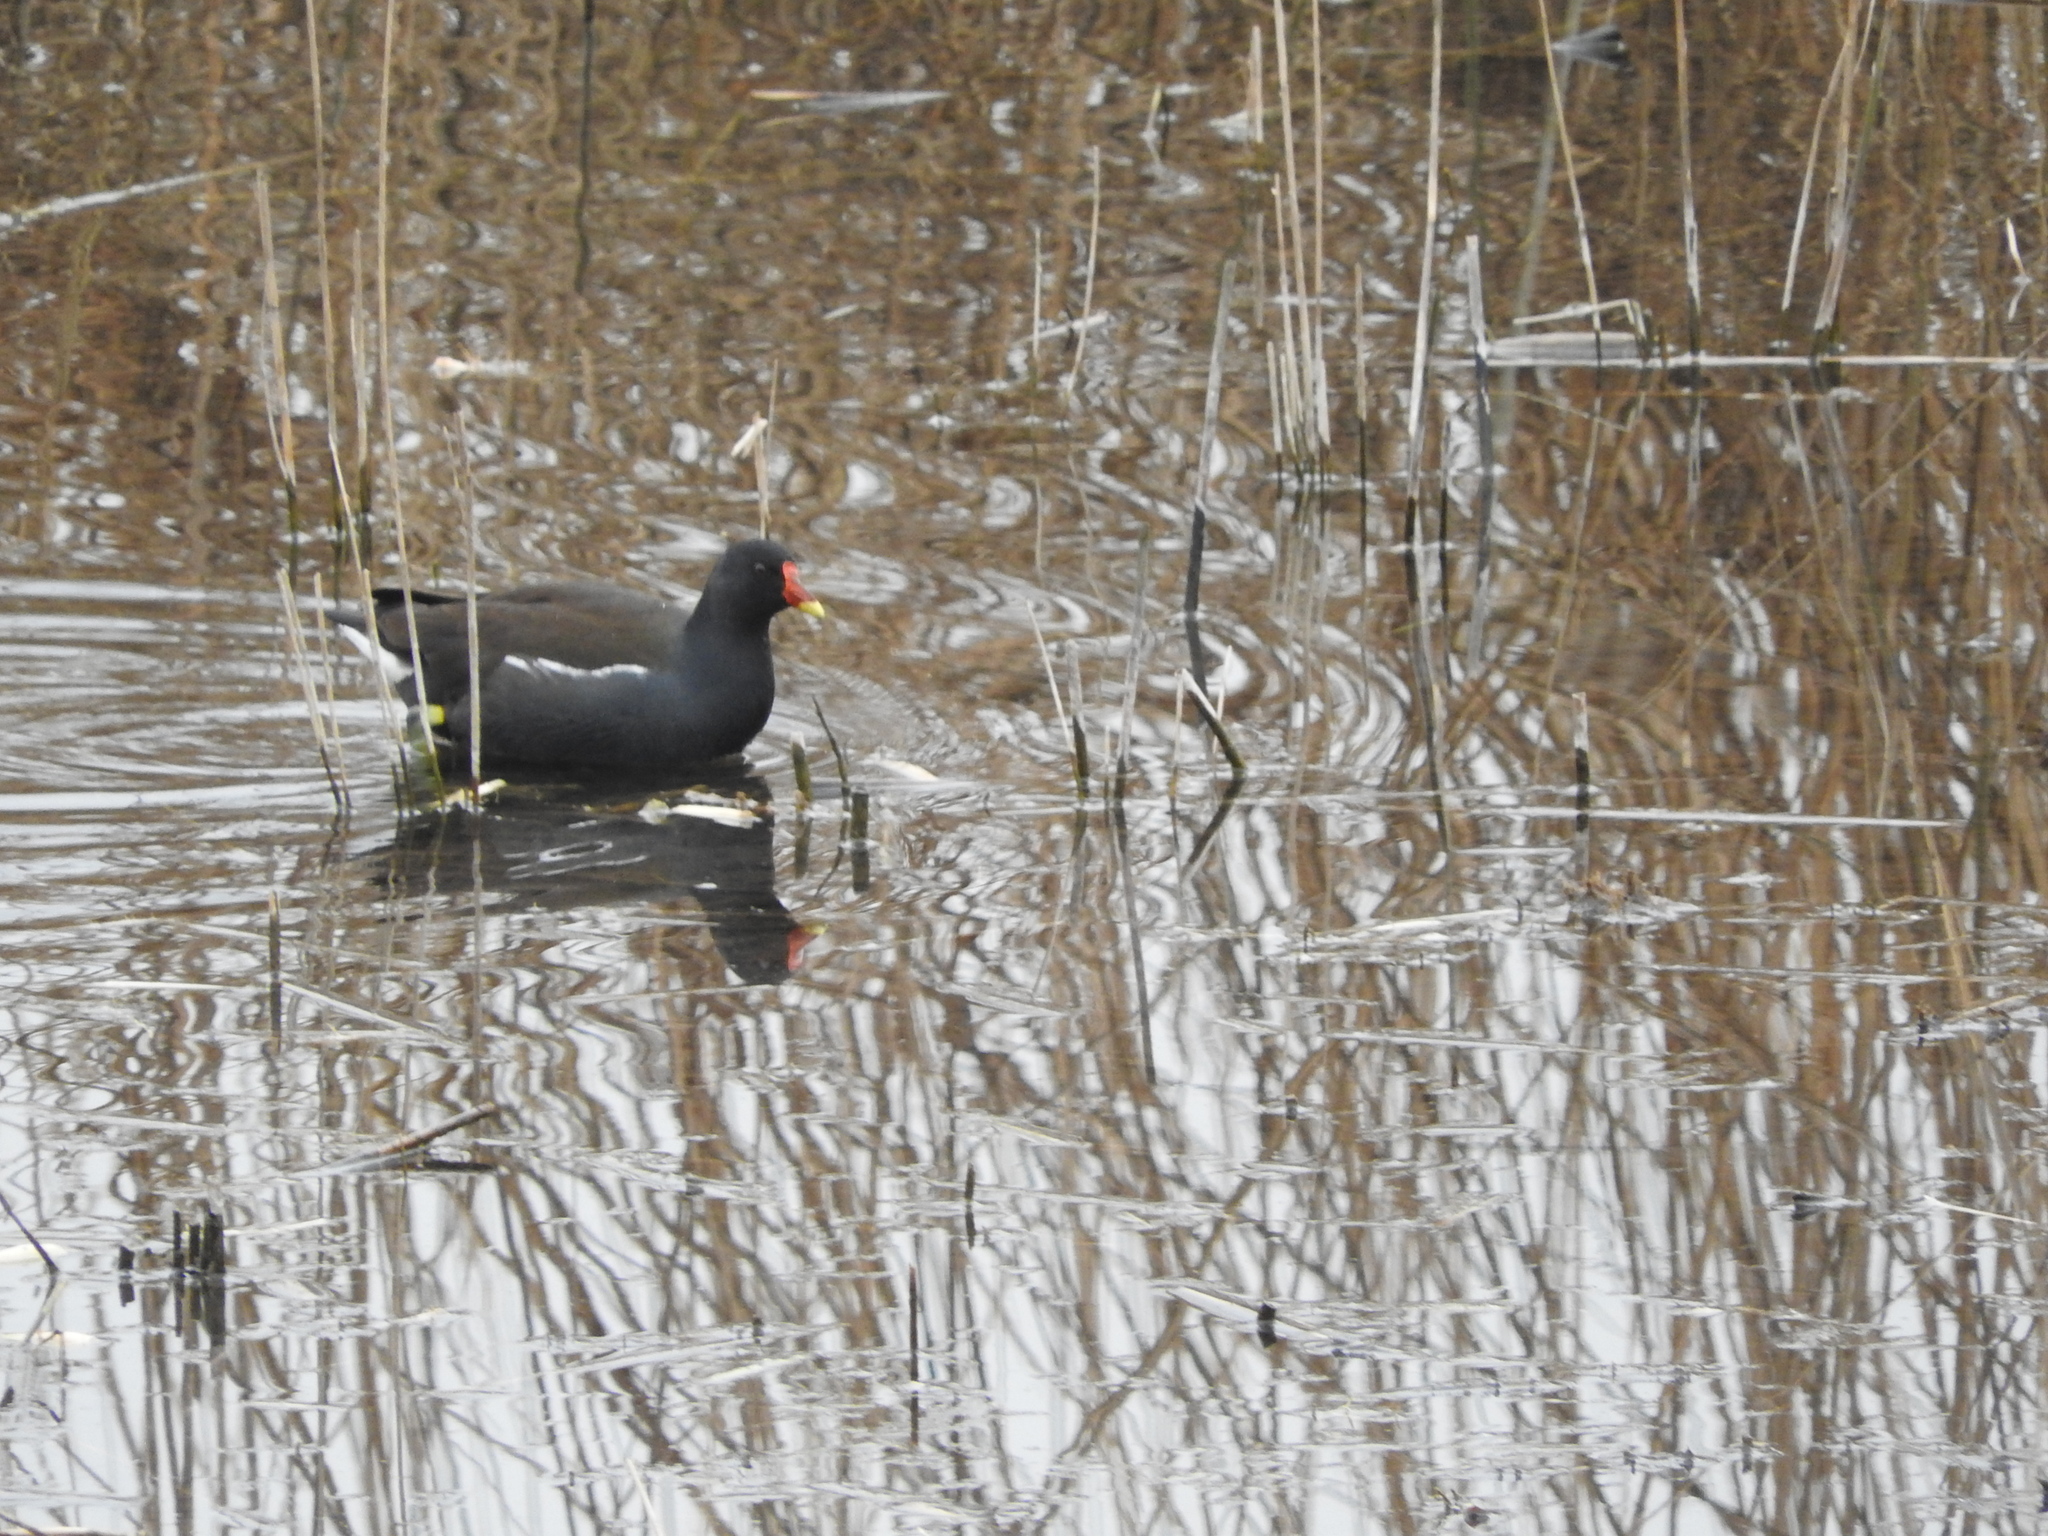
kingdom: Animalia
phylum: Chordata
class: Aves
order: Gruiformes
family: Rallidae
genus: Gallinula
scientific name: Gallinula chloropus
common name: Common moorhen
